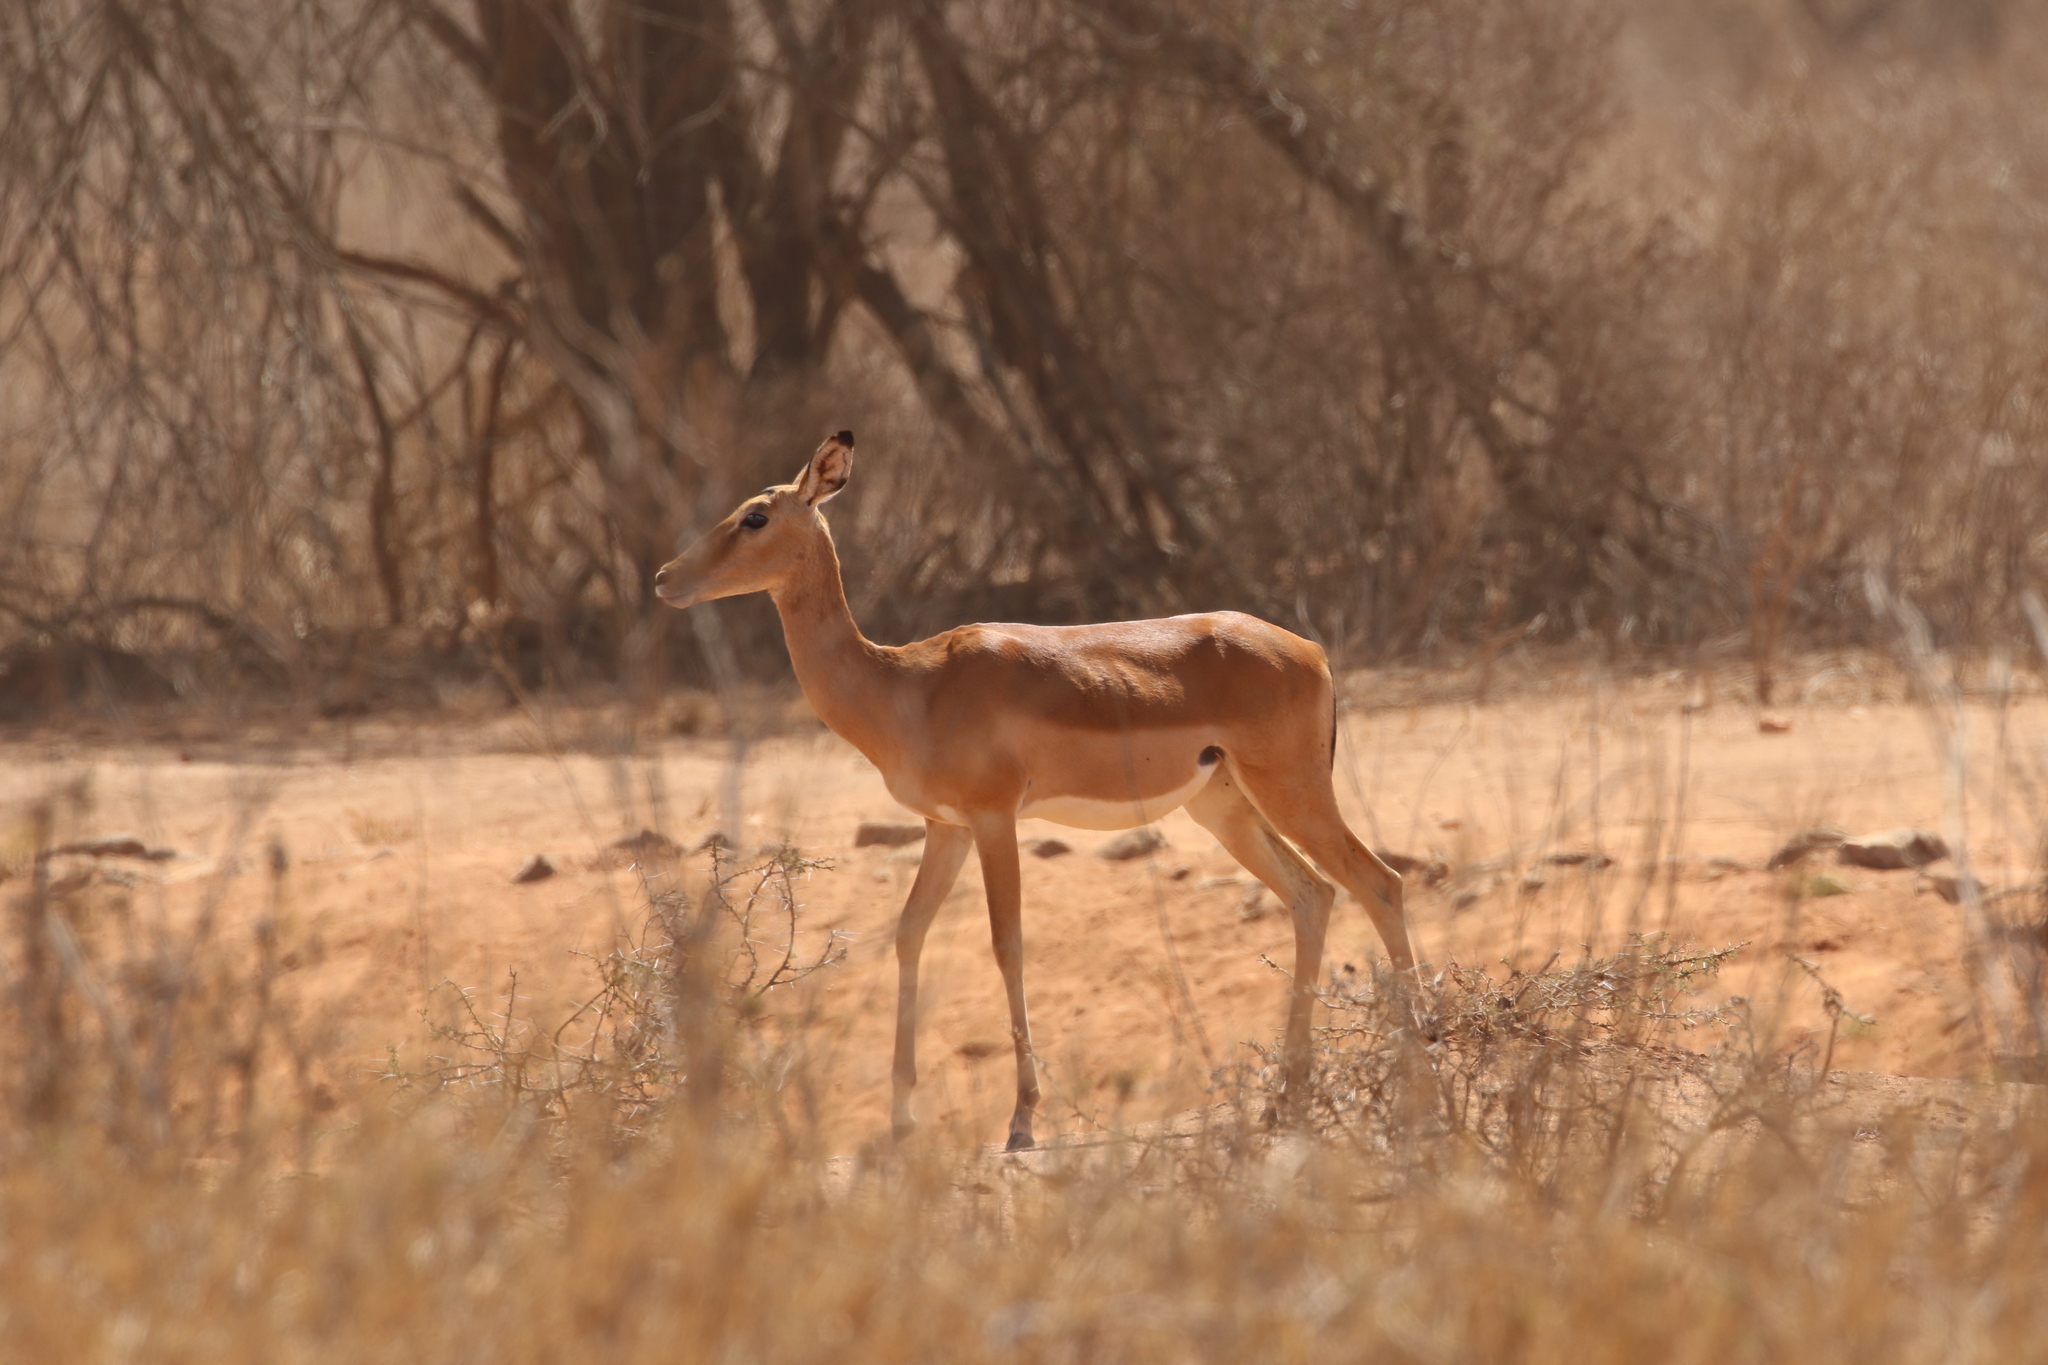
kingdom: Animalia
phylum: Chordata
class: Mammalia
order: Artiodactyla
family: Bovidae
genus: Aepyceros
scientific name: Aepyceros melampus
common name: Impala
